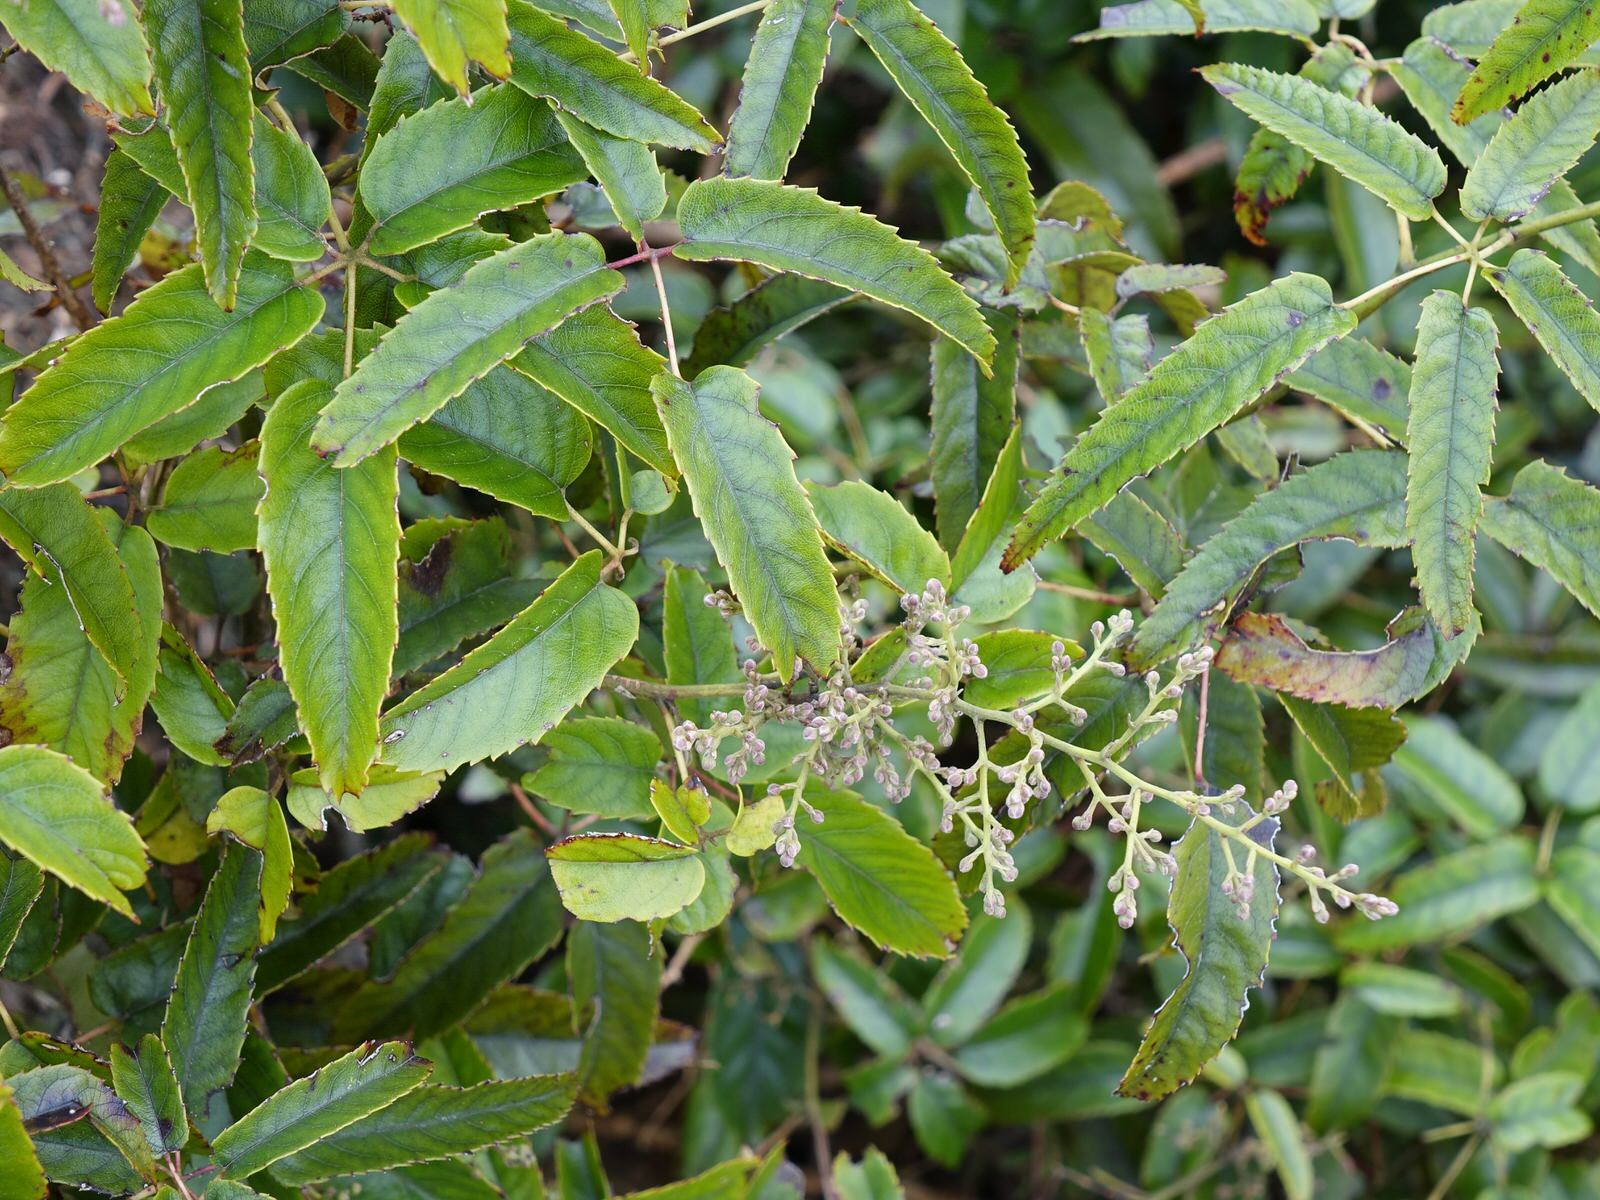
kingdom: Plantae
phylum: Tracheophyta
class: Magnoliopsida
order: Rosales
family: Rosaceae
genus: Rubus
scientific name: Rubus cissoides
